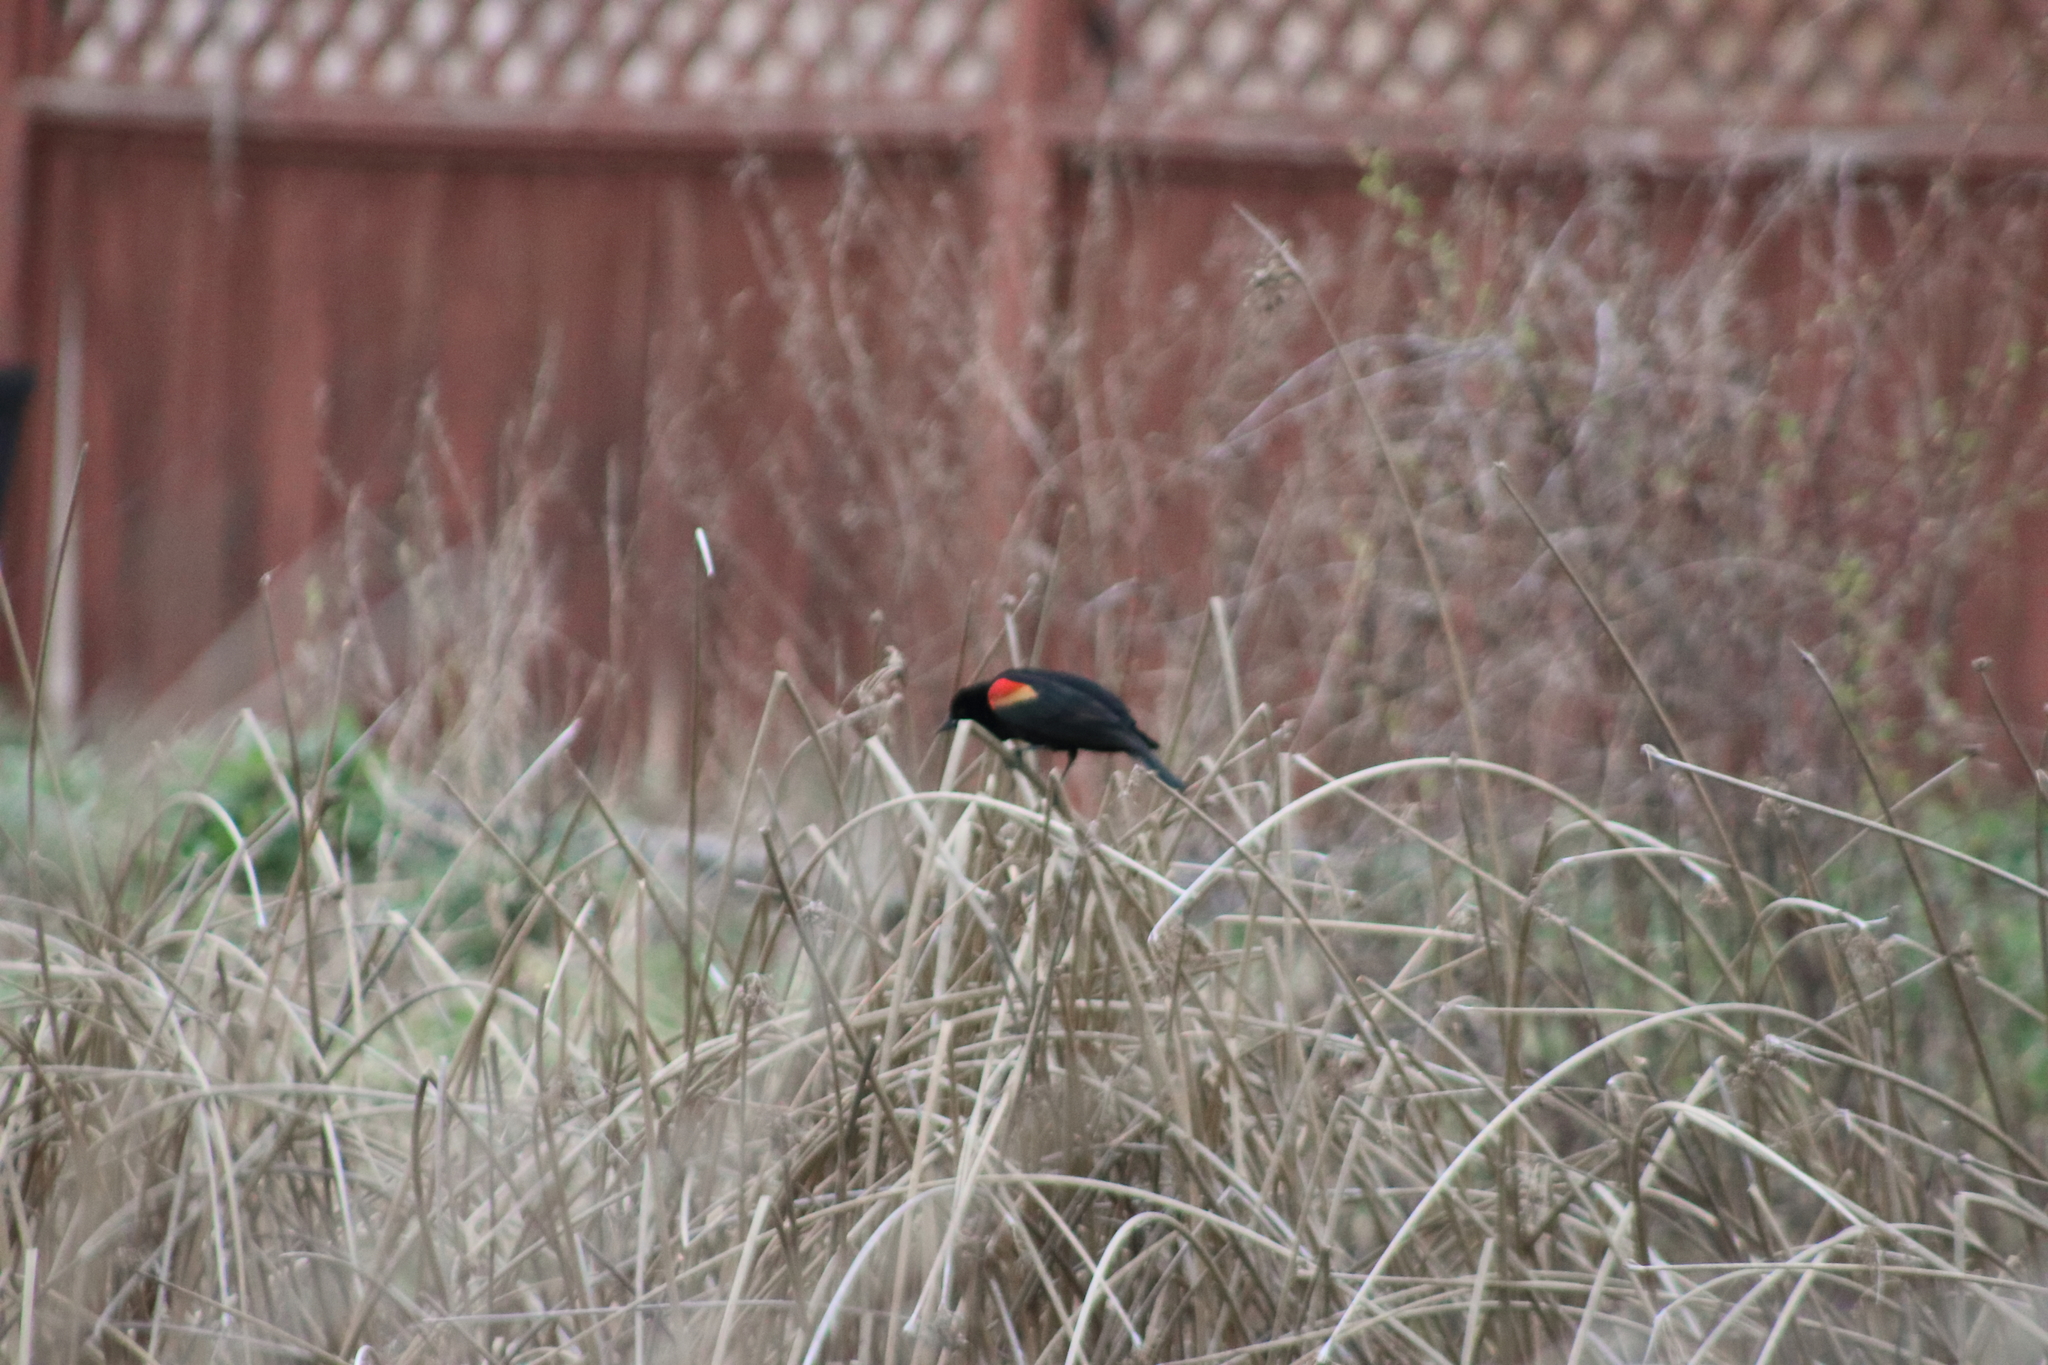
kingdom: Animalia
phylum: Chordata
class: Aves
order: Passeriformes
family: Icteridae
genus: Agelaius
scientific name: Agelaius phoeniceus
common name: Red-winged blackbird
